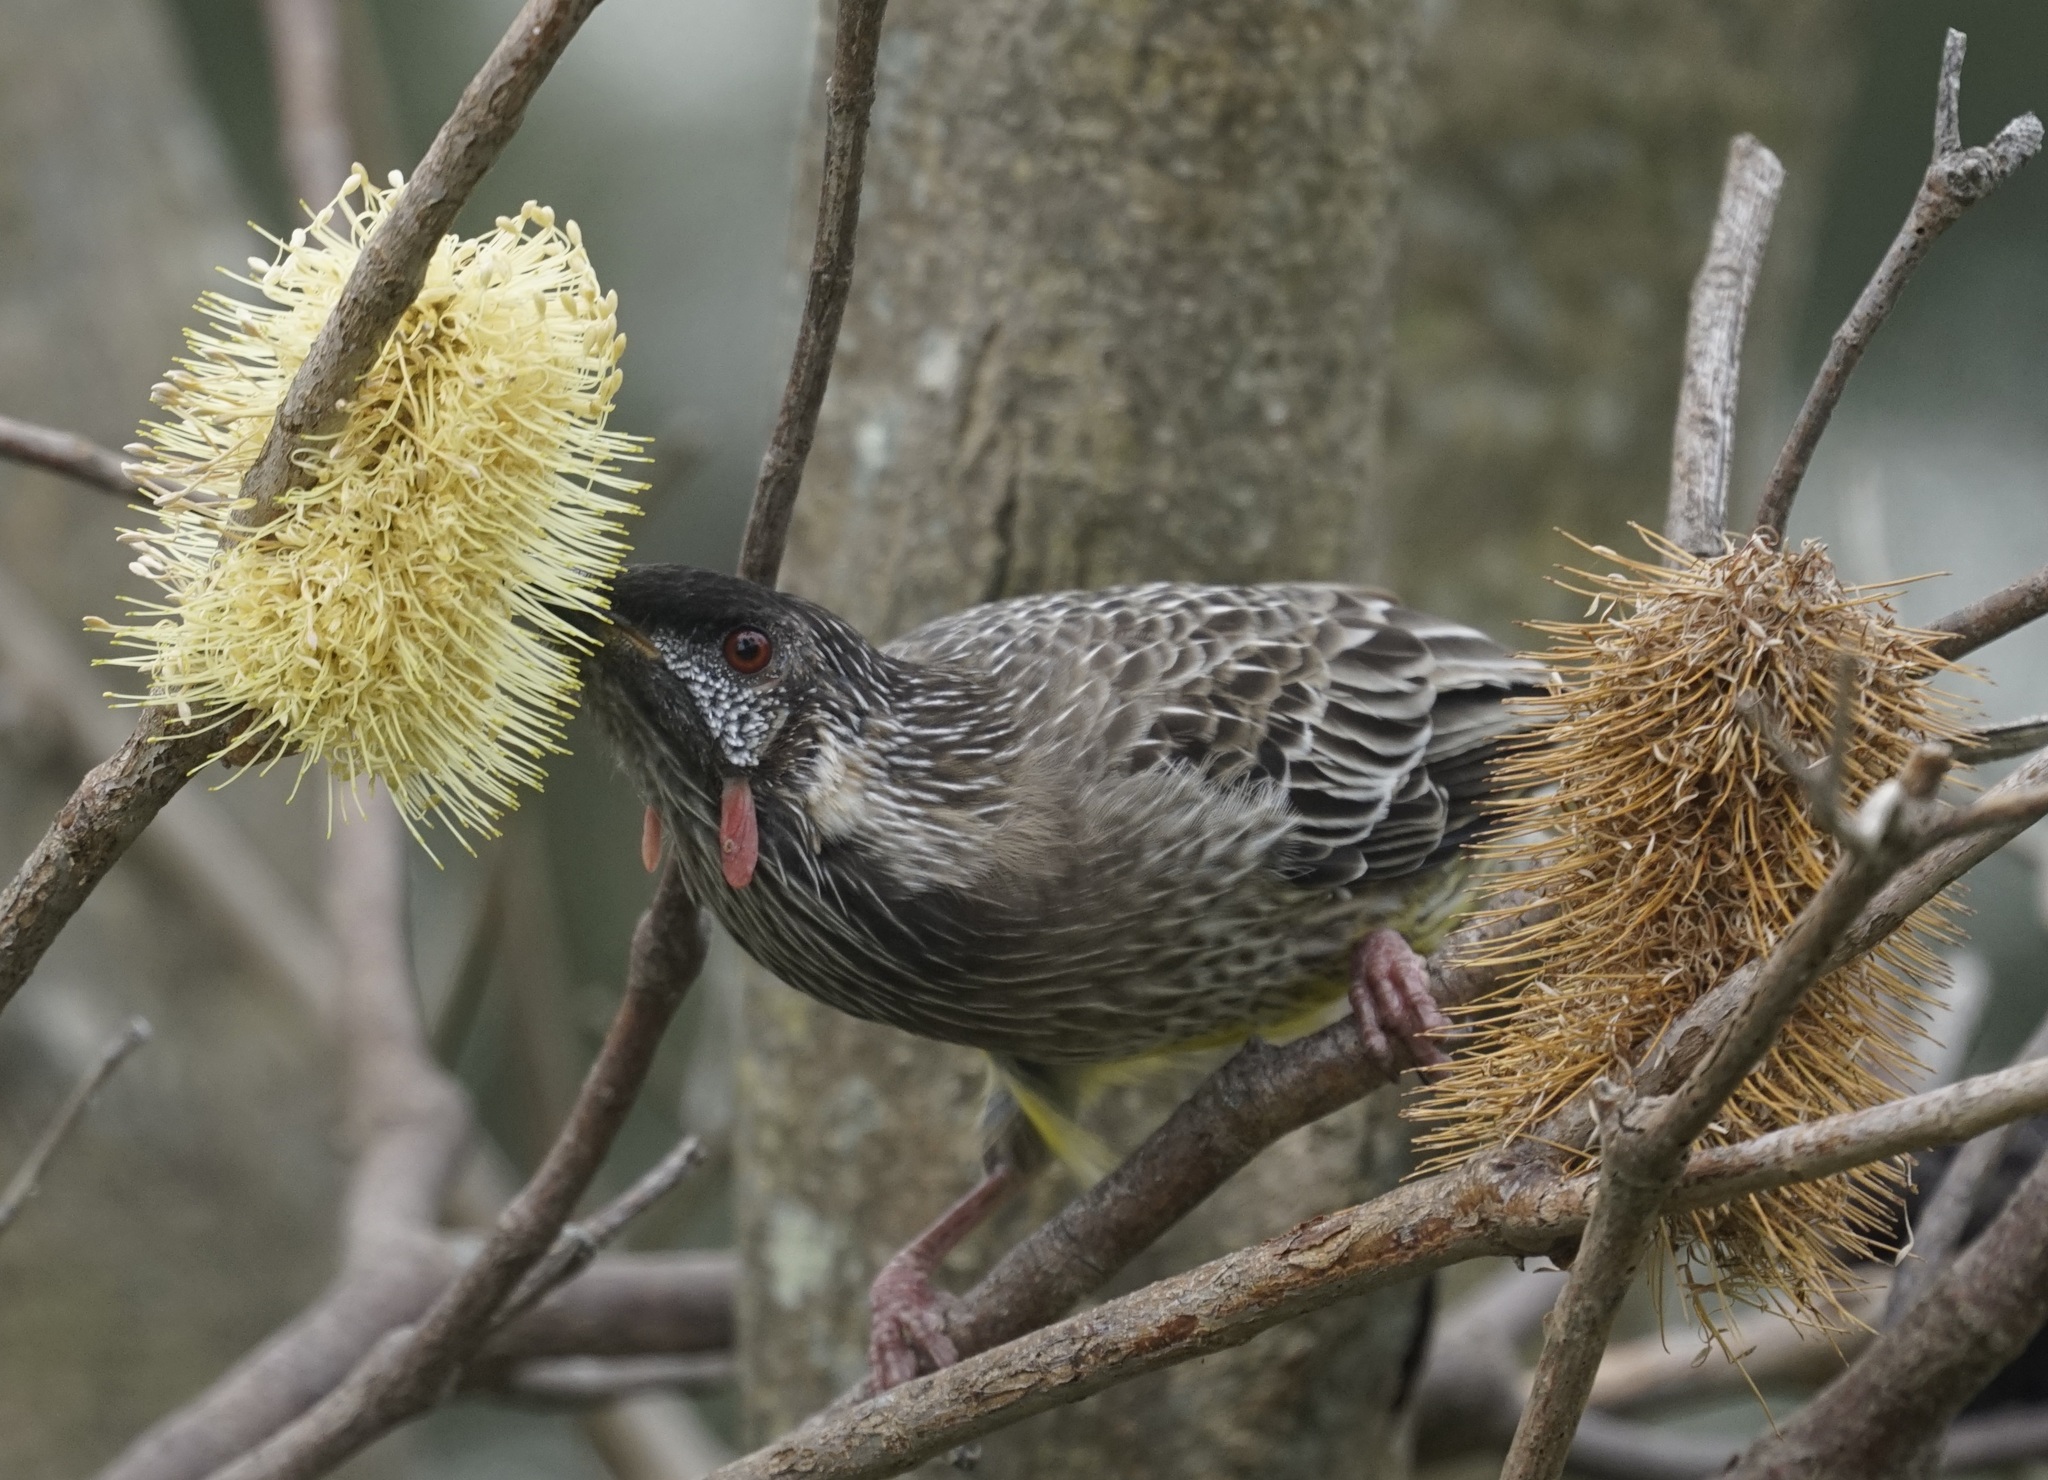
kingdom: Animalia
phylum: Chordata
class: Aves
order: Passeriformes
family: Meliphagidae
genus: Anthochaera
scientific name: Anthochaera carunculata
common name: Red wattlebird
